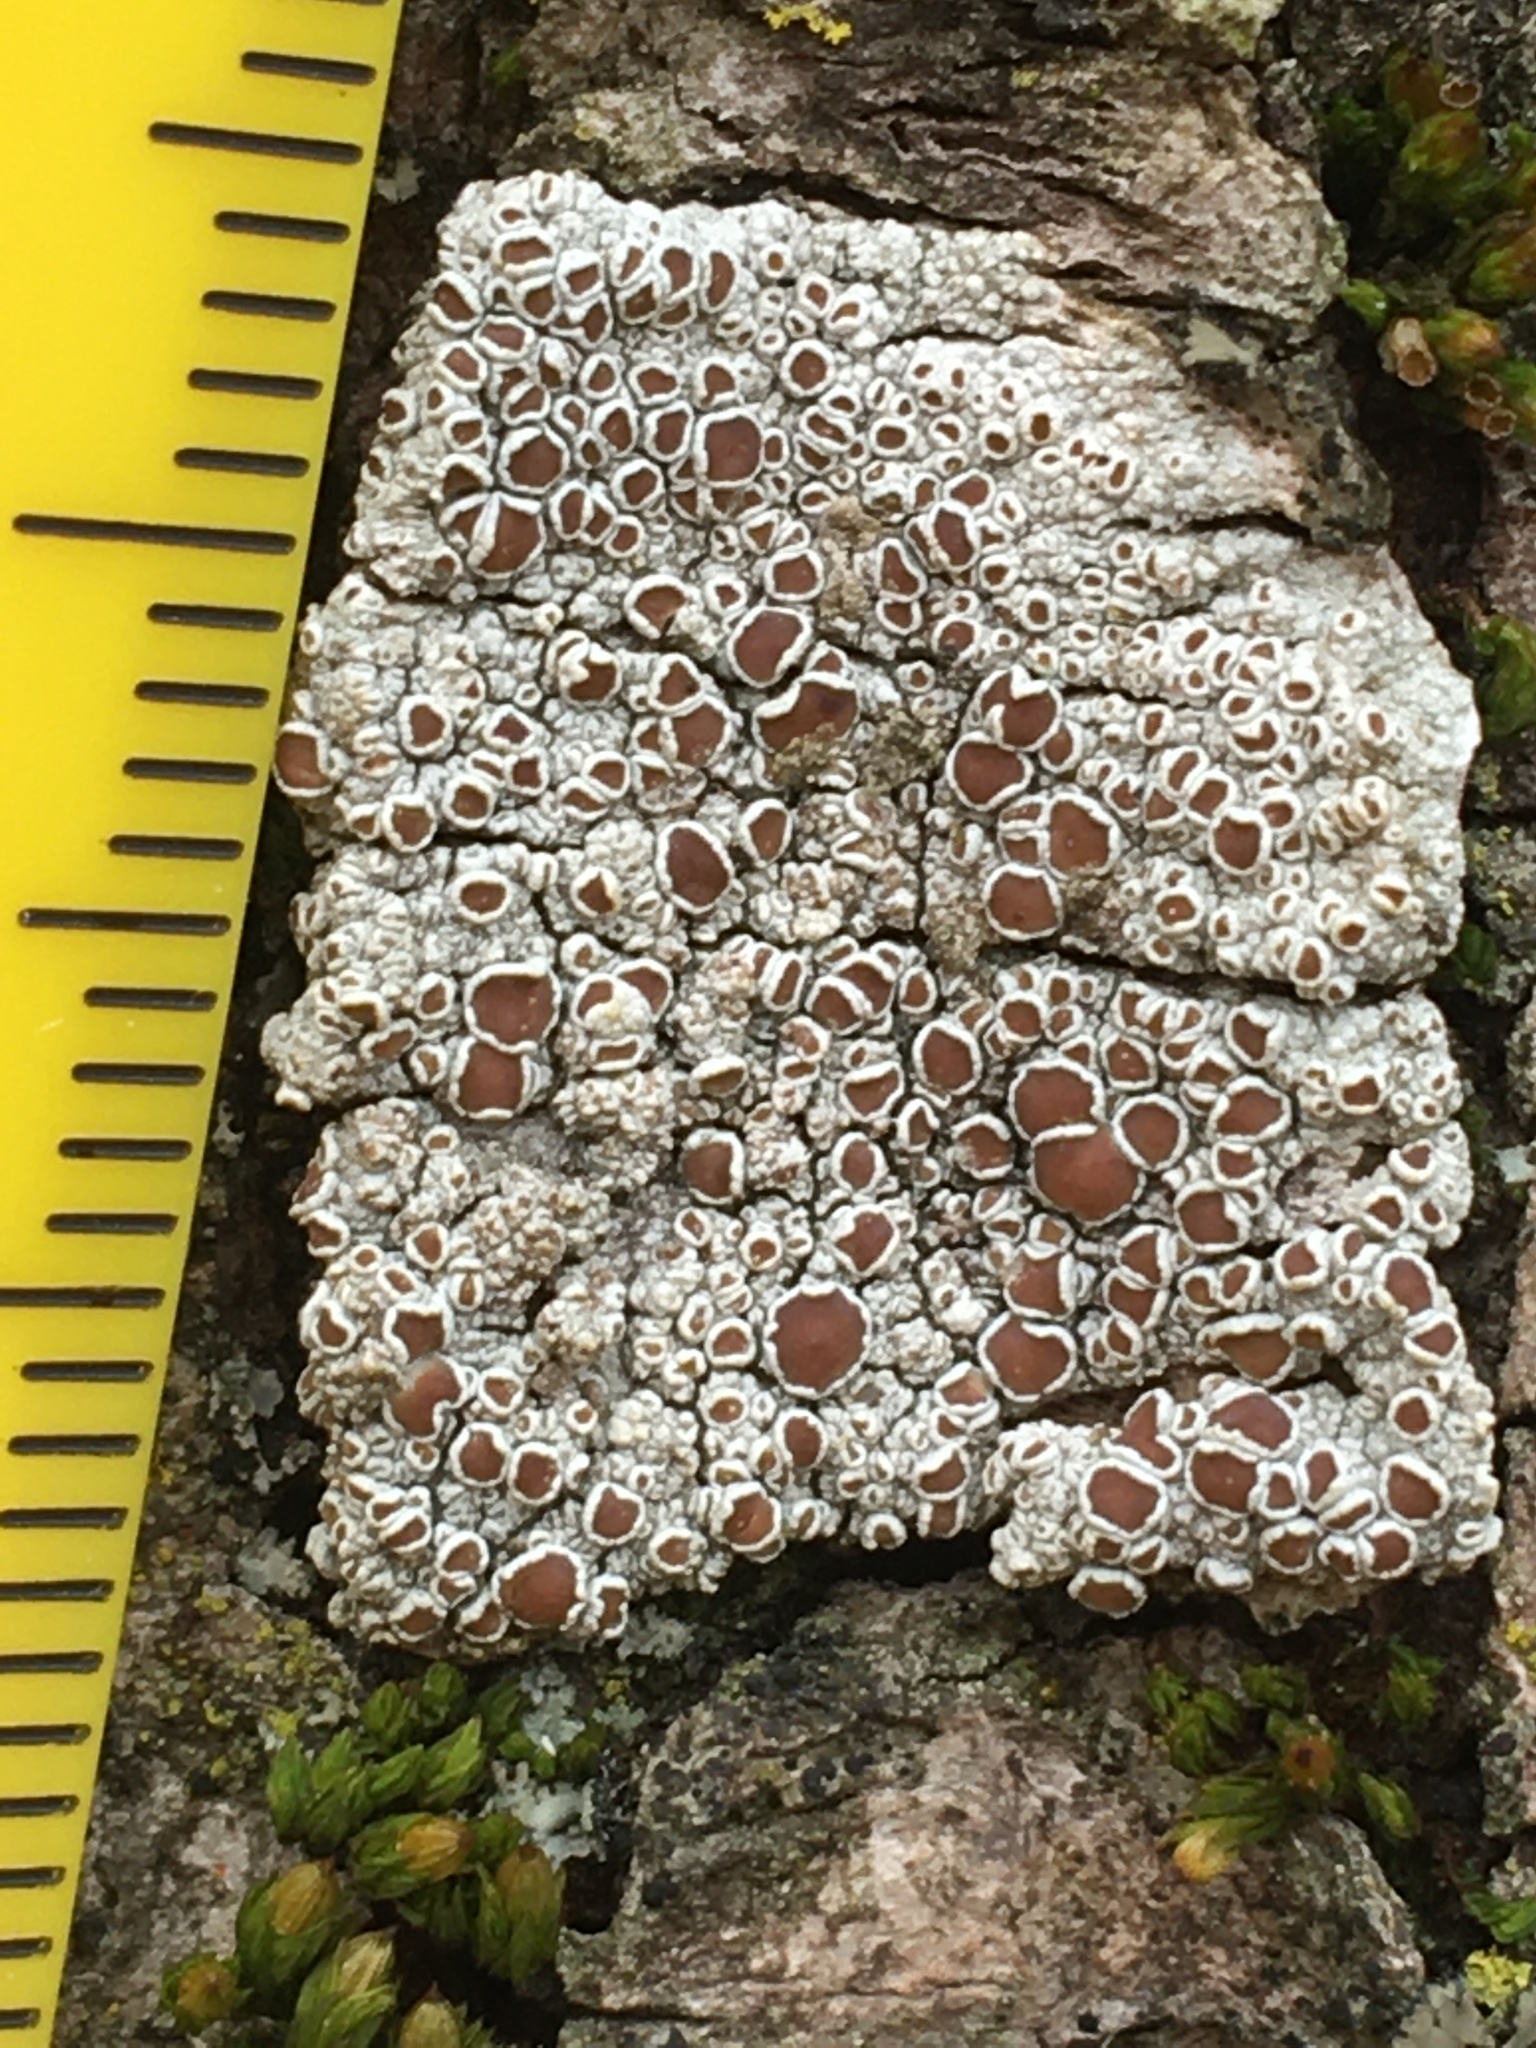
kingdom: Fungi
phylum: Ascomycota
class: Lecanoromycetes
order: Lecanorales
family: Lecanoraceae
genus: Lecanora
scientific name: Lecanora hybocarpa
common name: Bumpy rim-lichen
